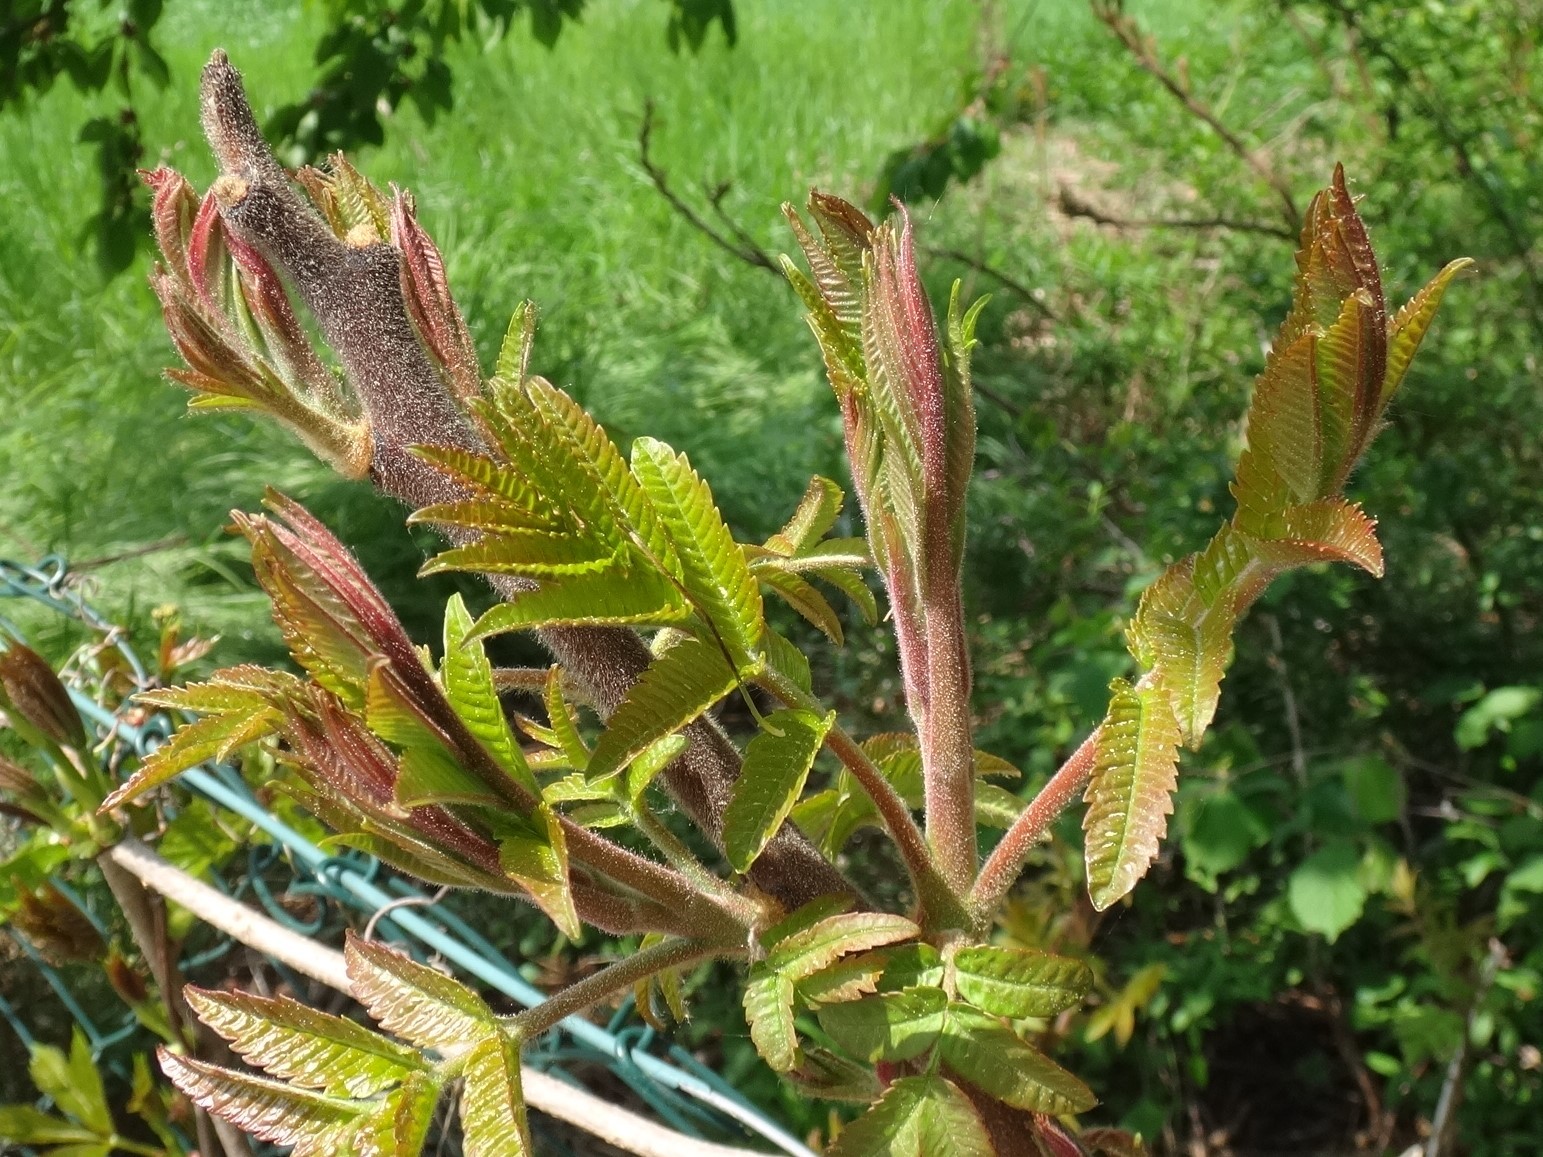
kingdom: Plantae
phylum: Tracheophyta
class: Magnoliopsida
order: Sapindales
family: Anacardiaceae
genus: Rhus
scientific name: Rhus typhina
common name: Staghorn sumac
